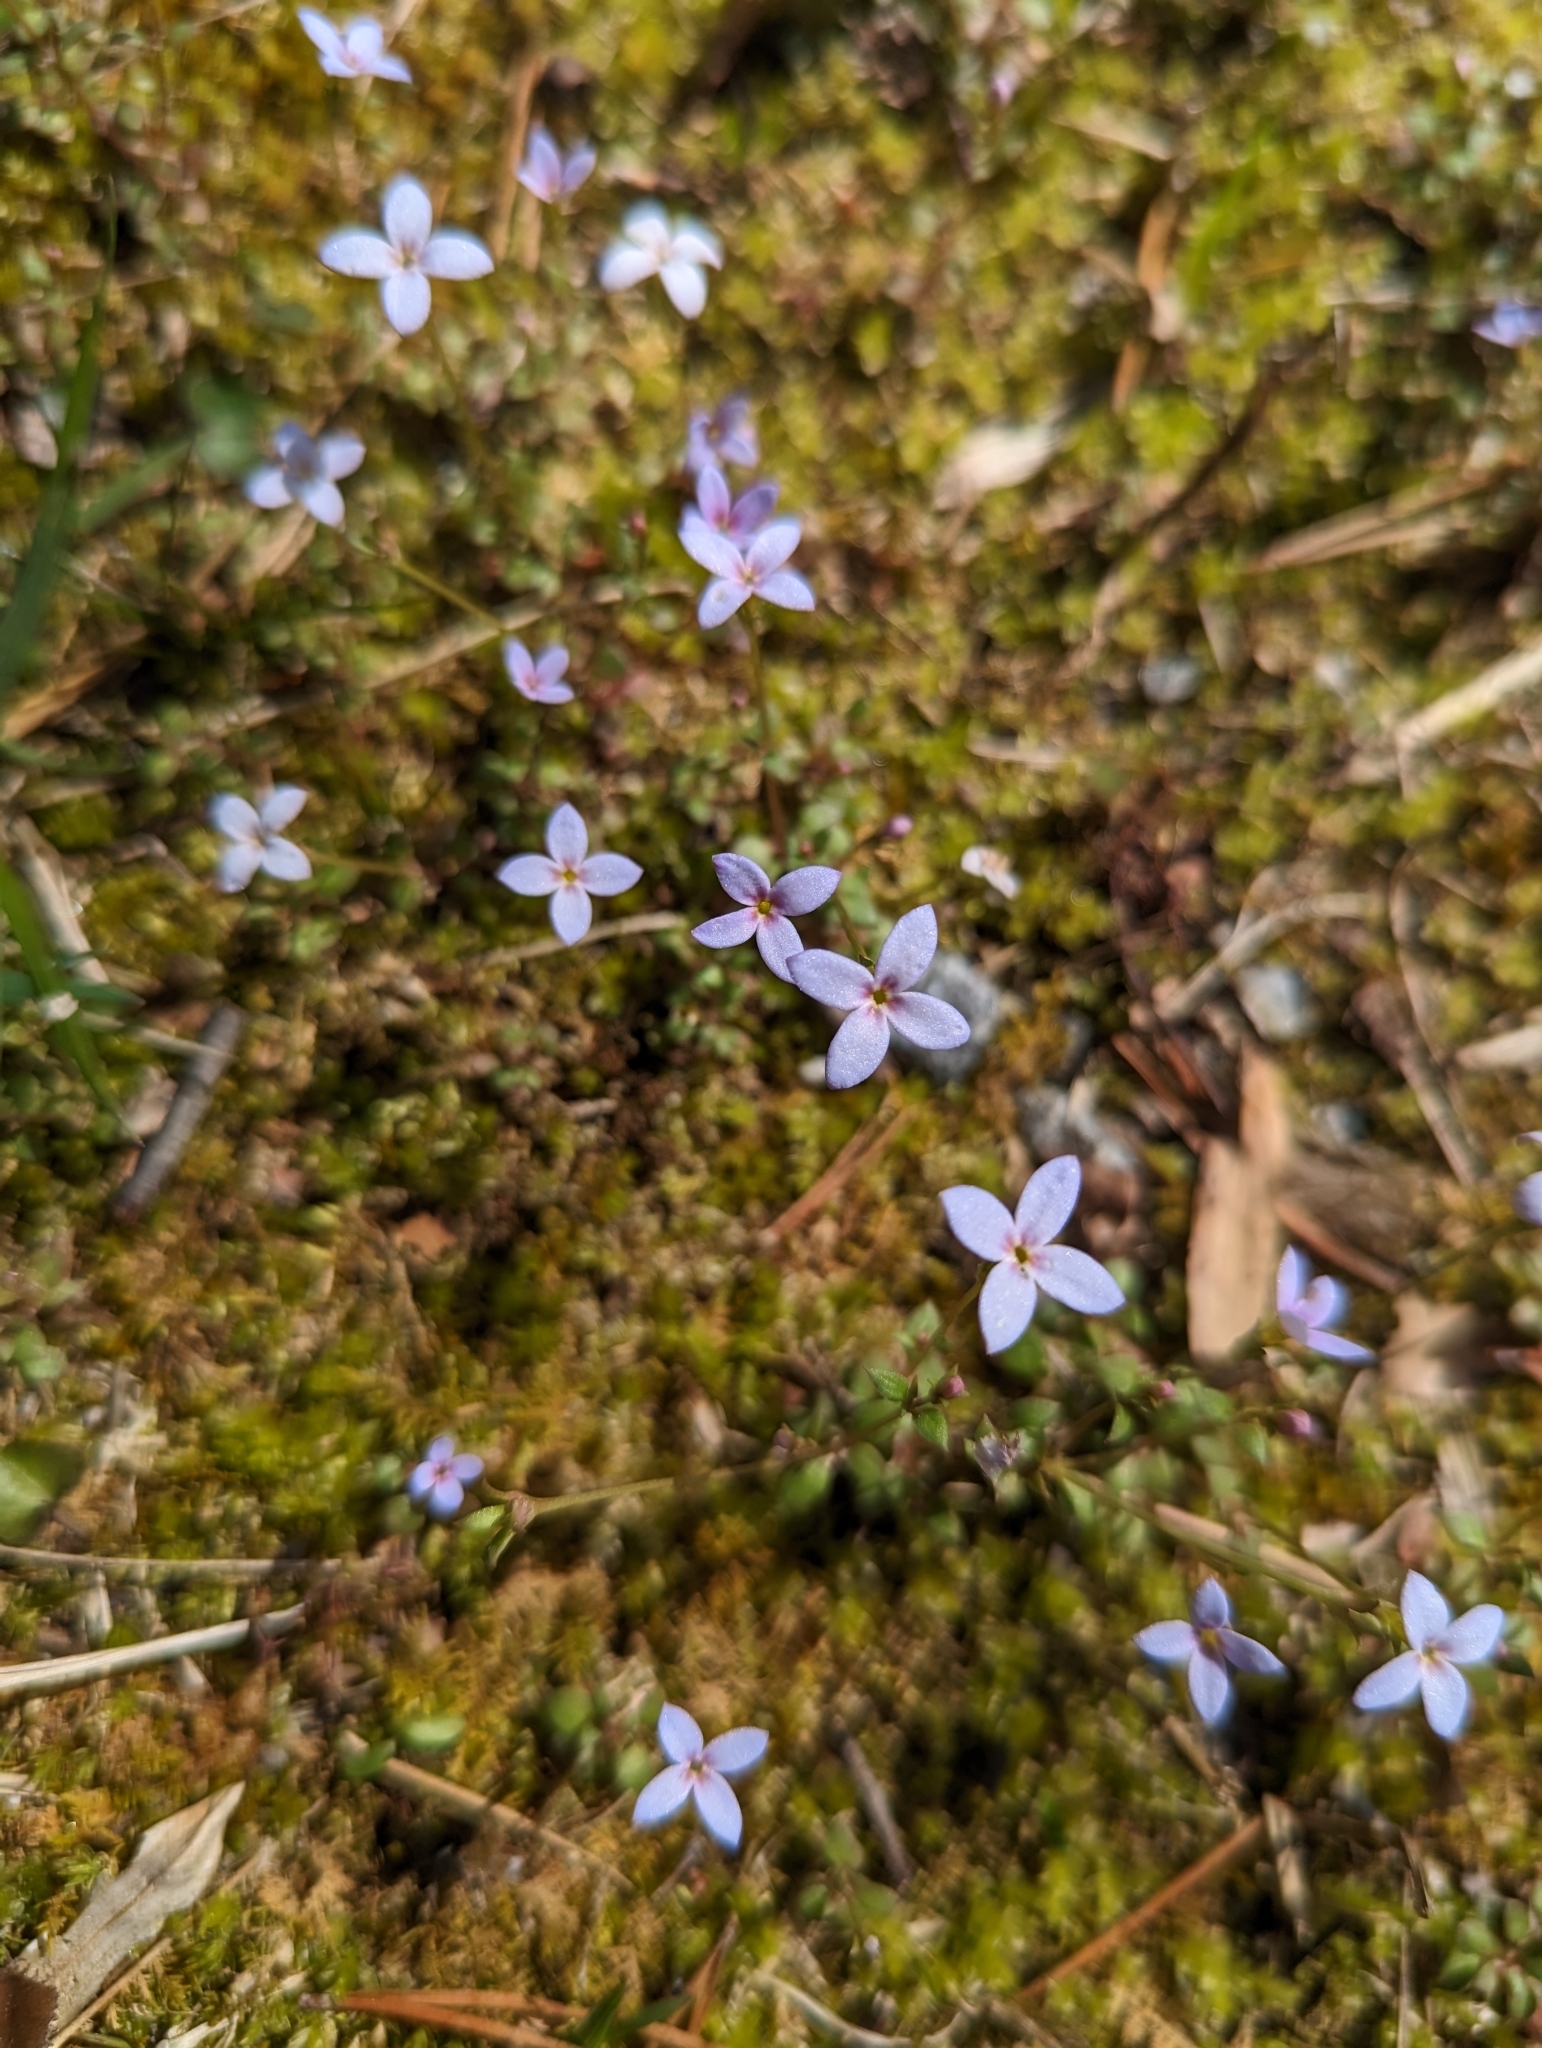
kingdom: Plantae
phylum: Tracheophyta
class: Magnoliopsida
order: Gentianales
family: Rubiaceae
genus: Houstonia
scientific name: Houstonia pusilla
